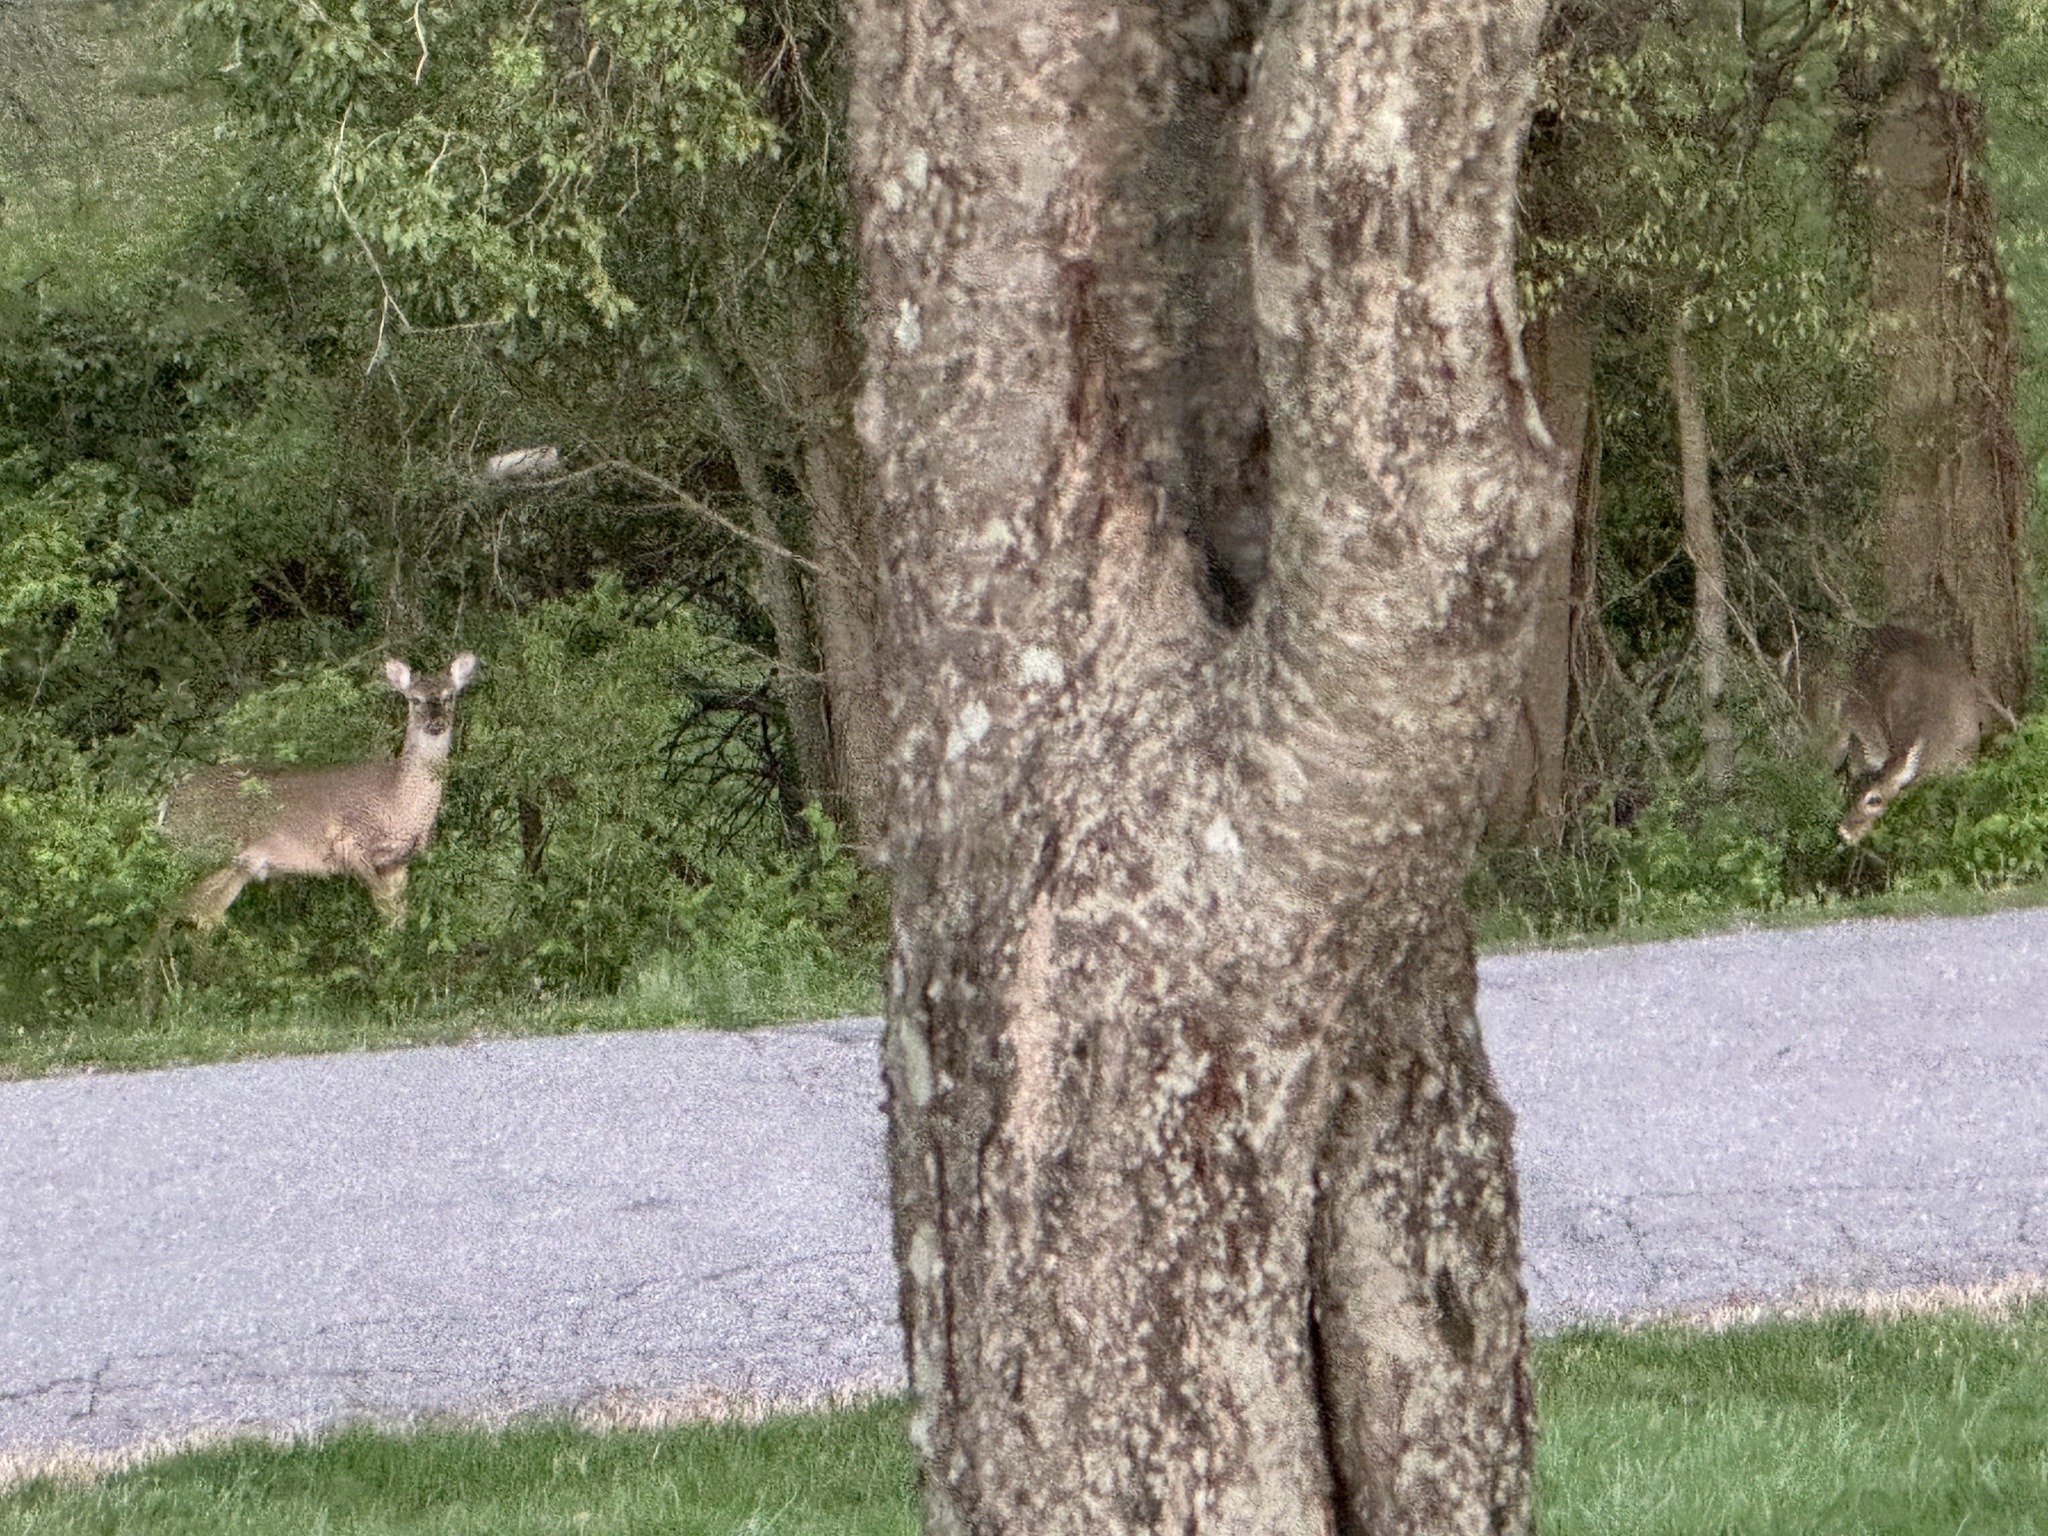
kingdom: Animalia
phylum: Chordata
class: Mammalia
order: Artiodactyla
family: Cervidae
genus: Odocoileus
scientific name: Odocoileus virginianus
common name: White-tailed deer
